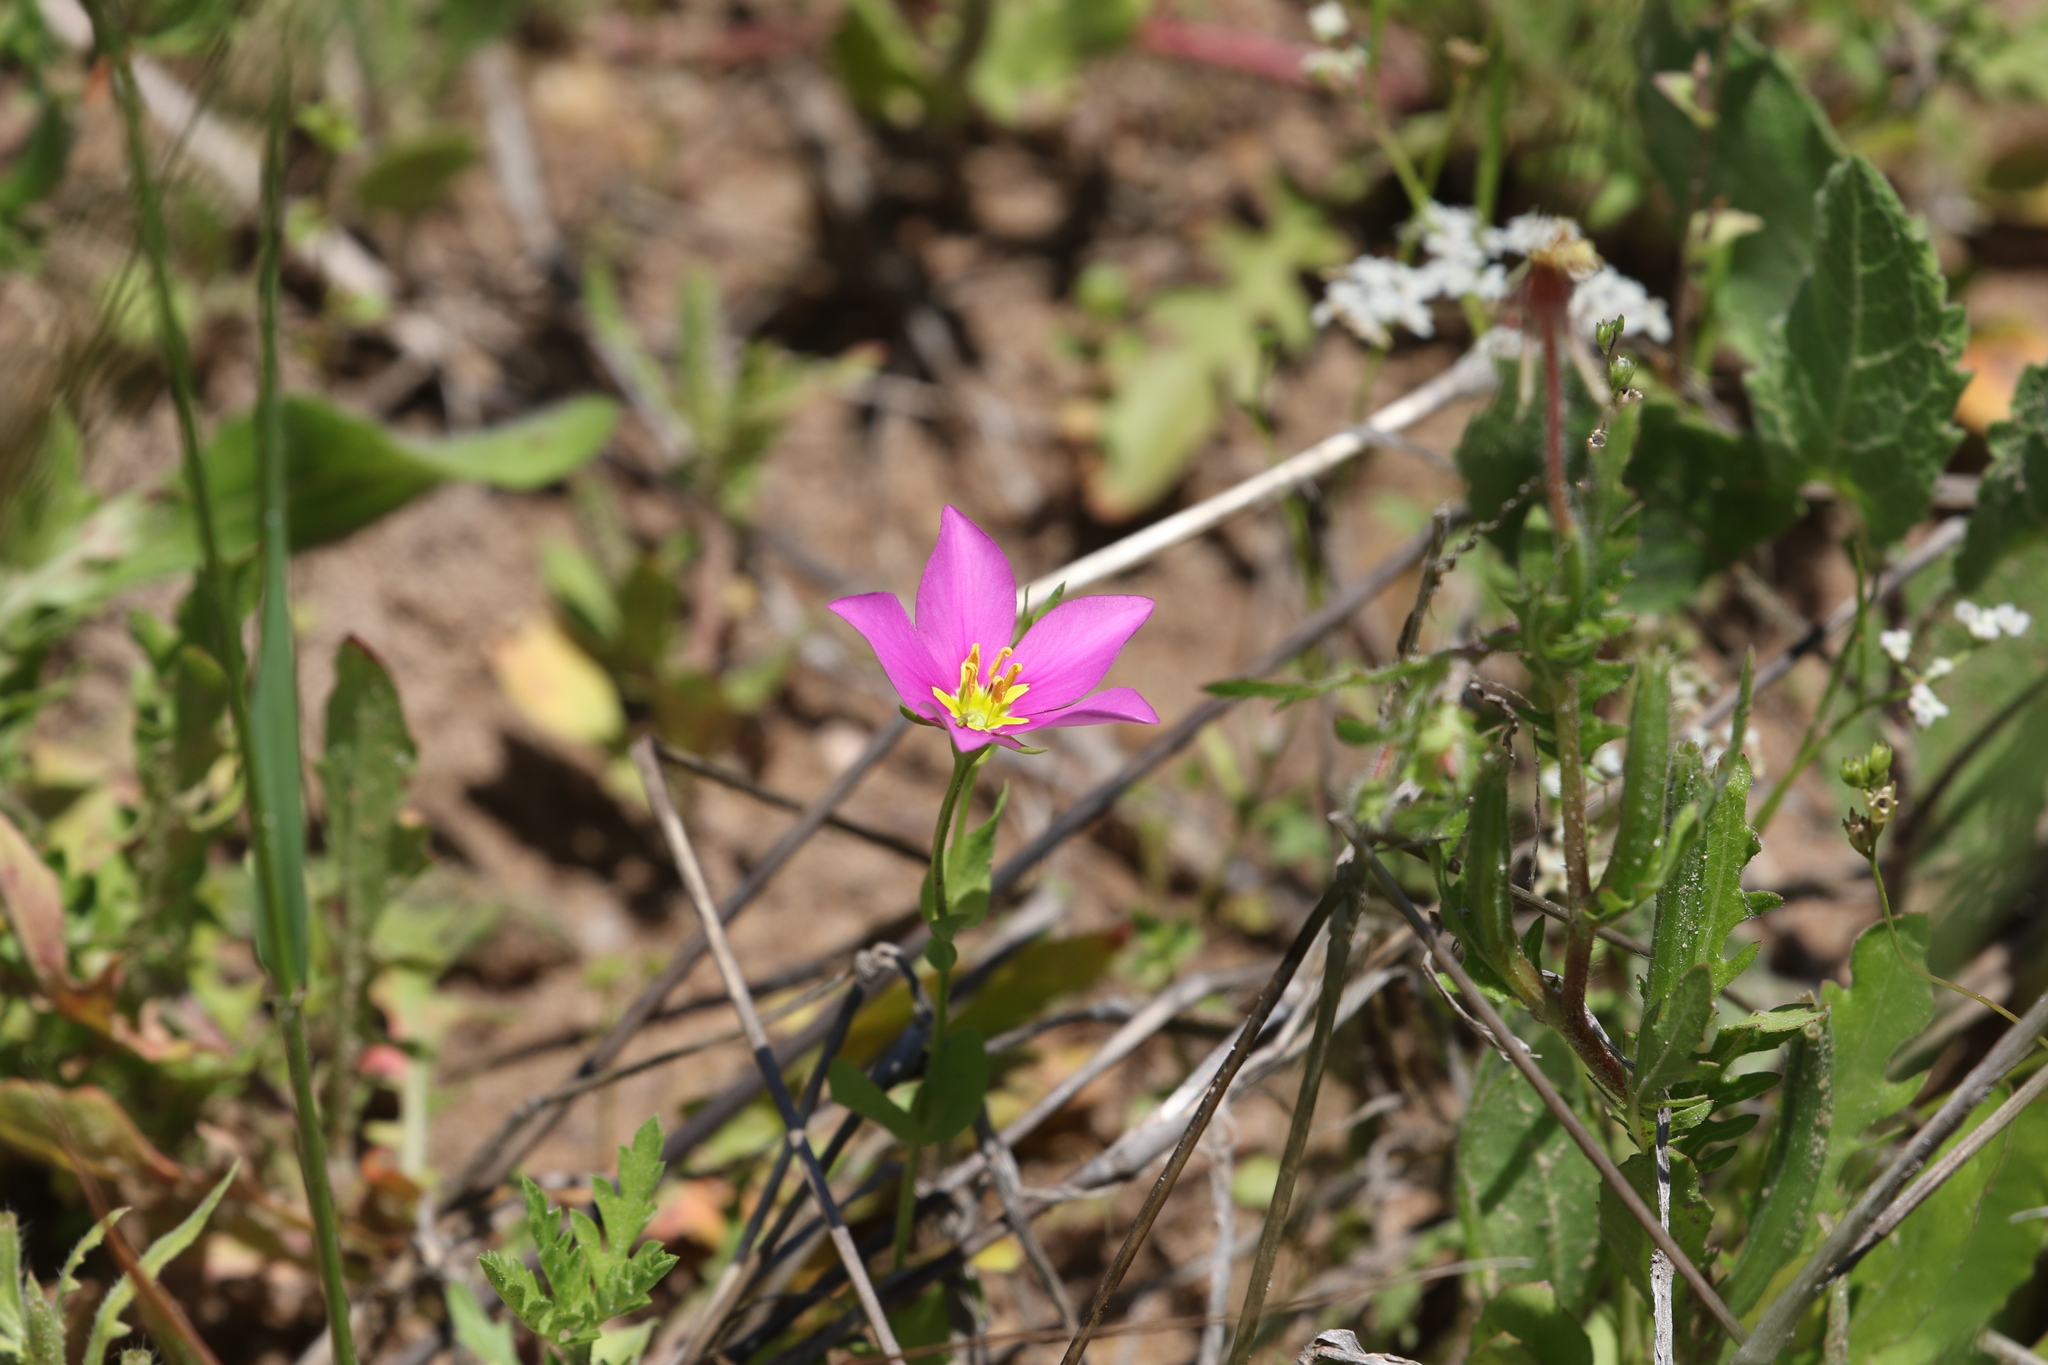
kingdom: Plantae
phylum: Tracheophyta
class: Magnoliopsida
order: Gentianales
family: Gentianaceae
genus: Sabatia
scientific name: Sabatia campestris
